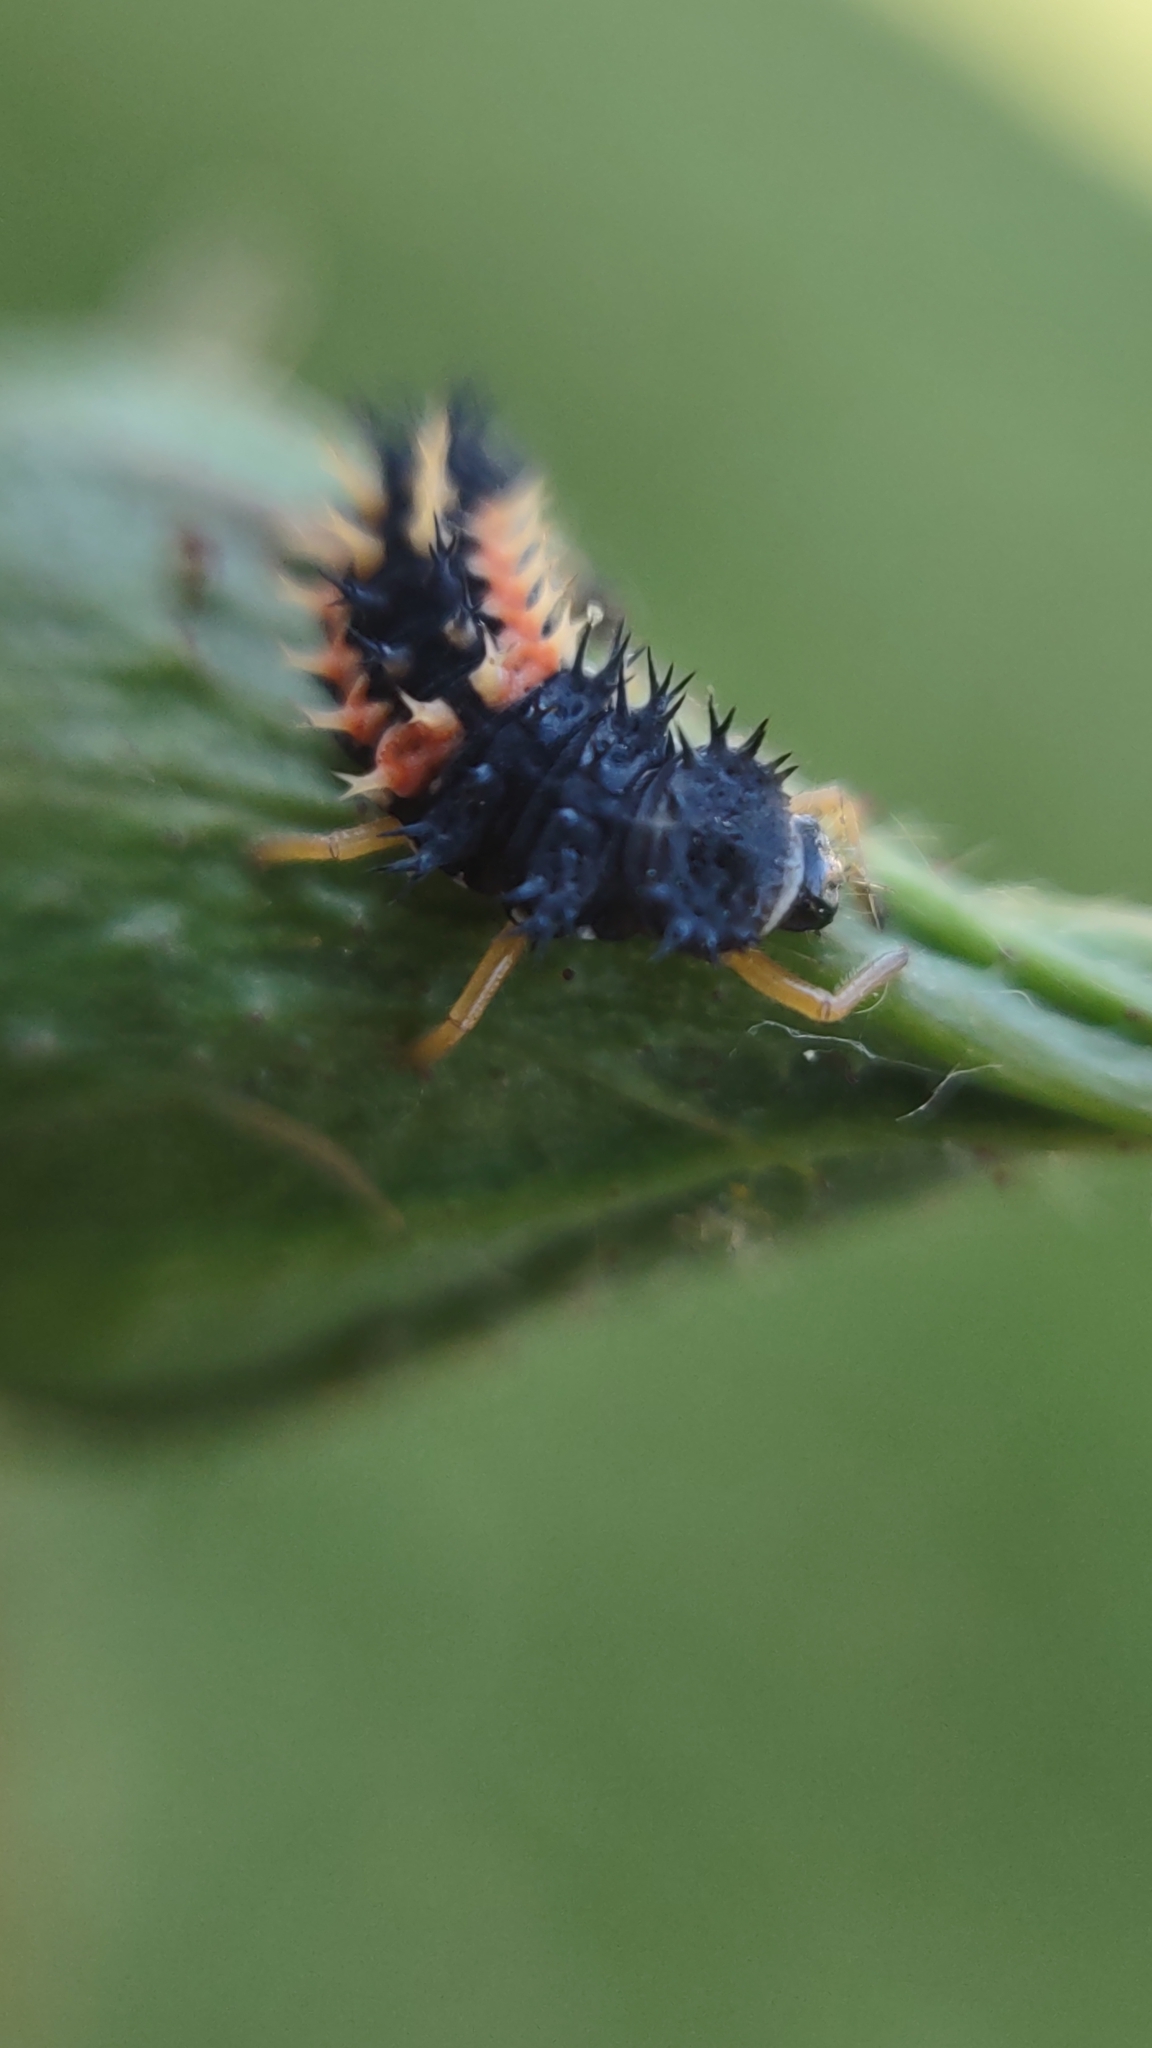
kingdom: Animalia
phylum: Arthropoda
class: Insecta
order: Coleoptera
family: Coccinellidae
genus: Harmonia
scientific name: Harmonia axyridis
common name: Harlequin ladybird
